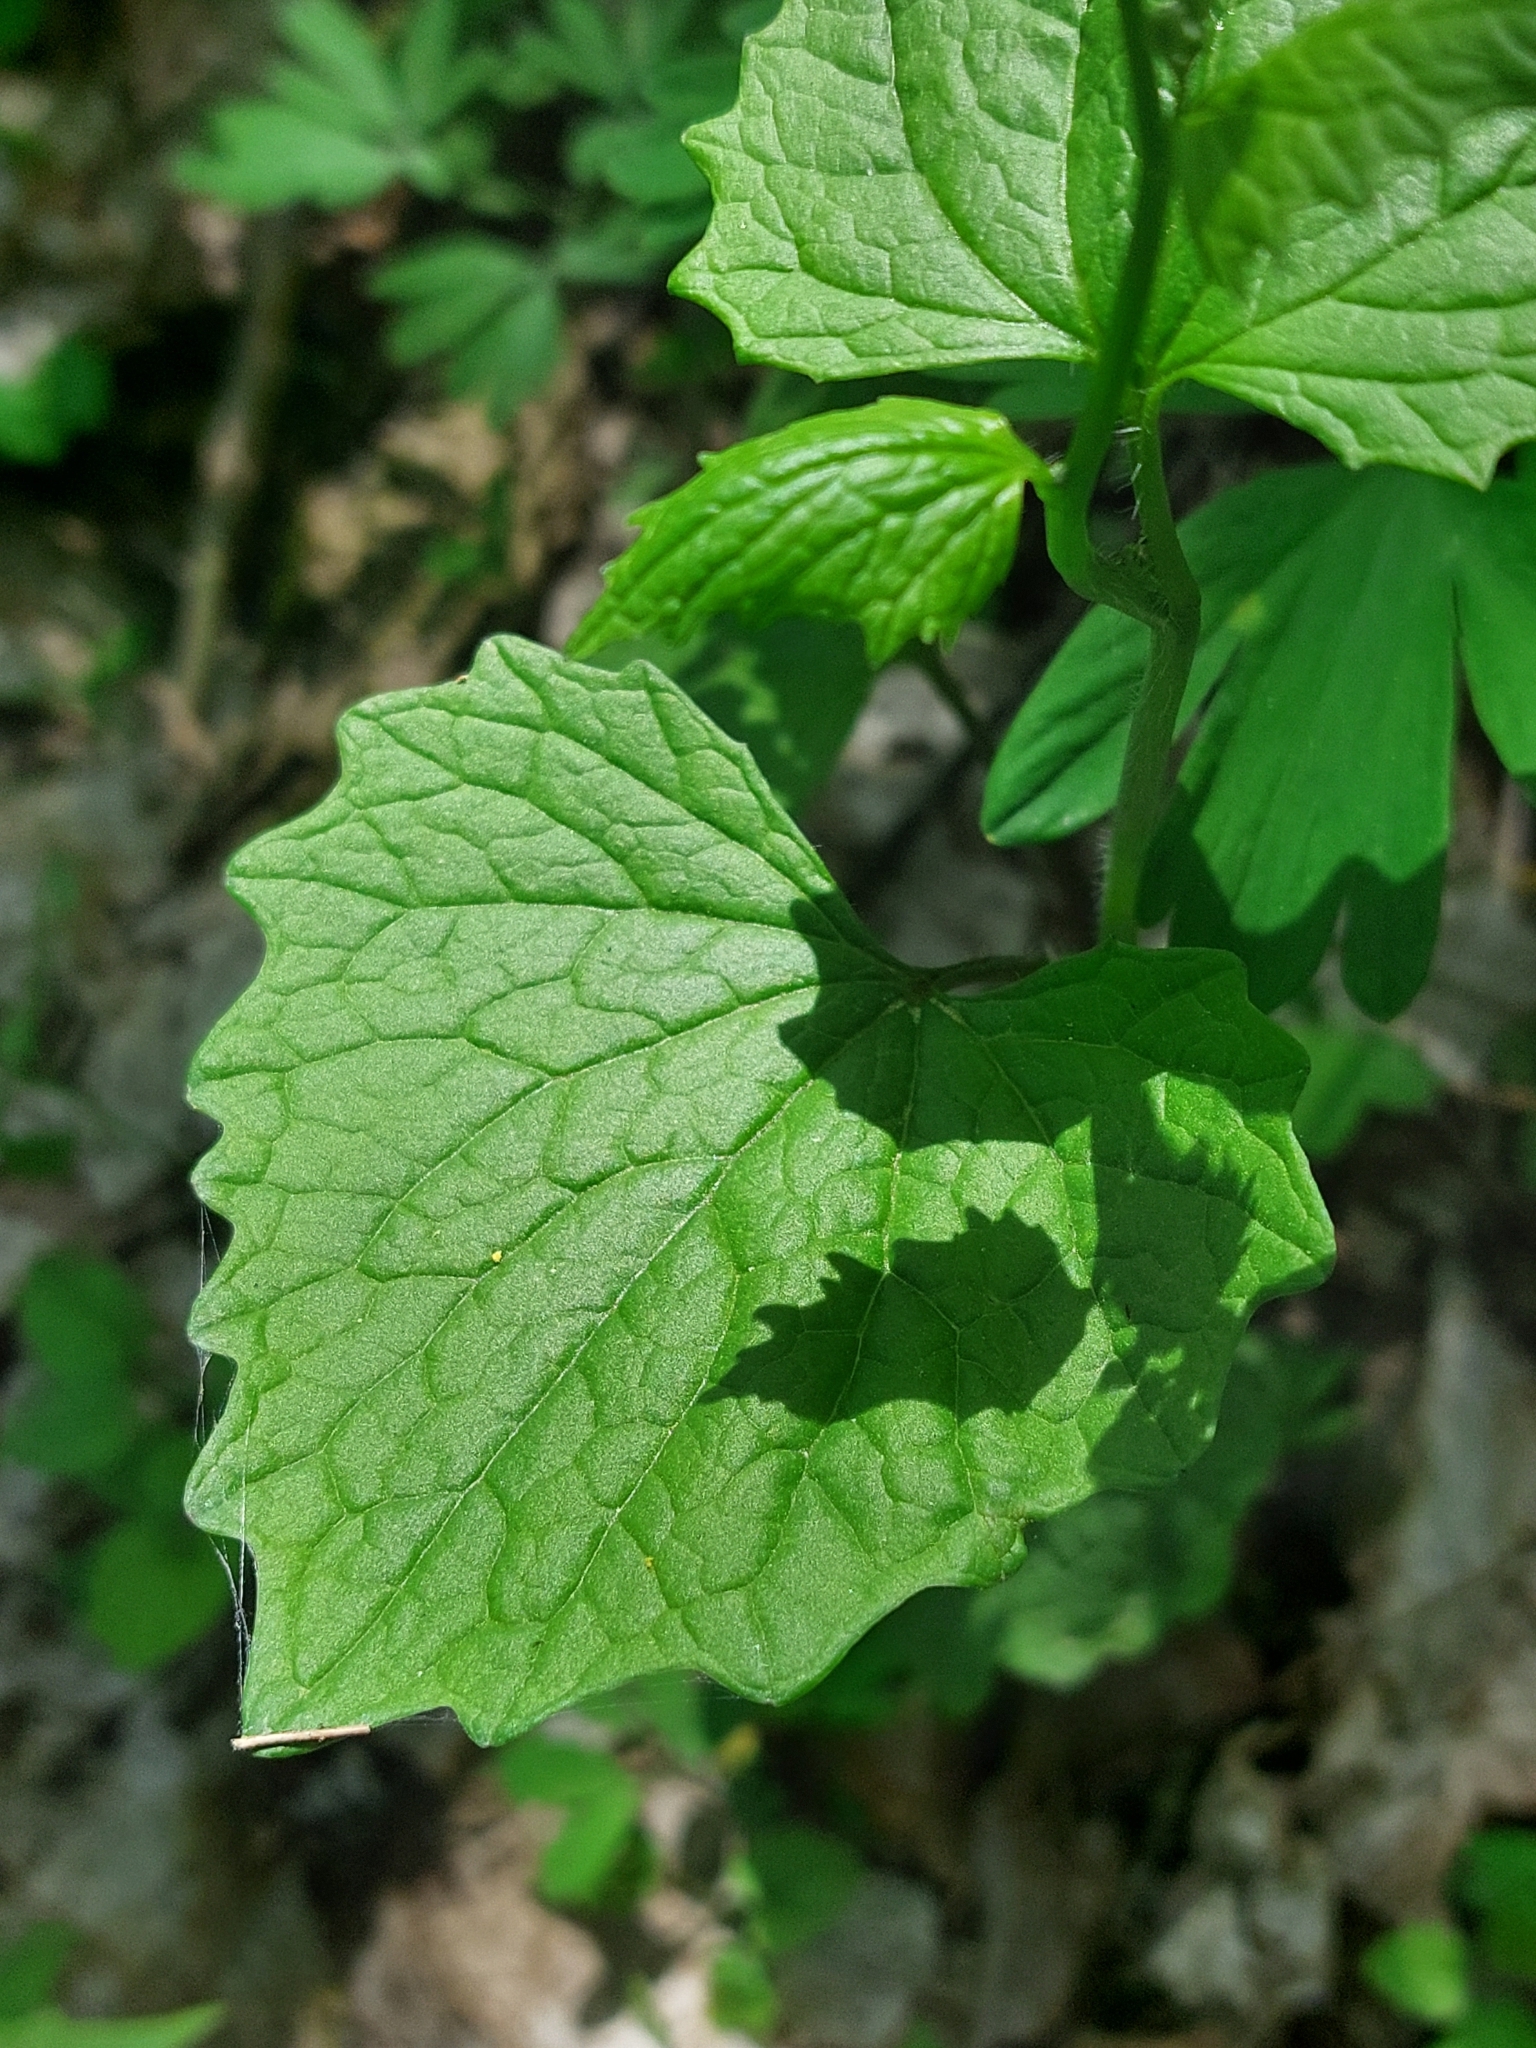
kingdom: Plantae
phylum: Tracheophyta
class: Magnoliopsida
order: Brassicales
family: Brassicaceae
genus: Alliaria
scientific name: Alliaria petiolata
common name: Garlic mustard
